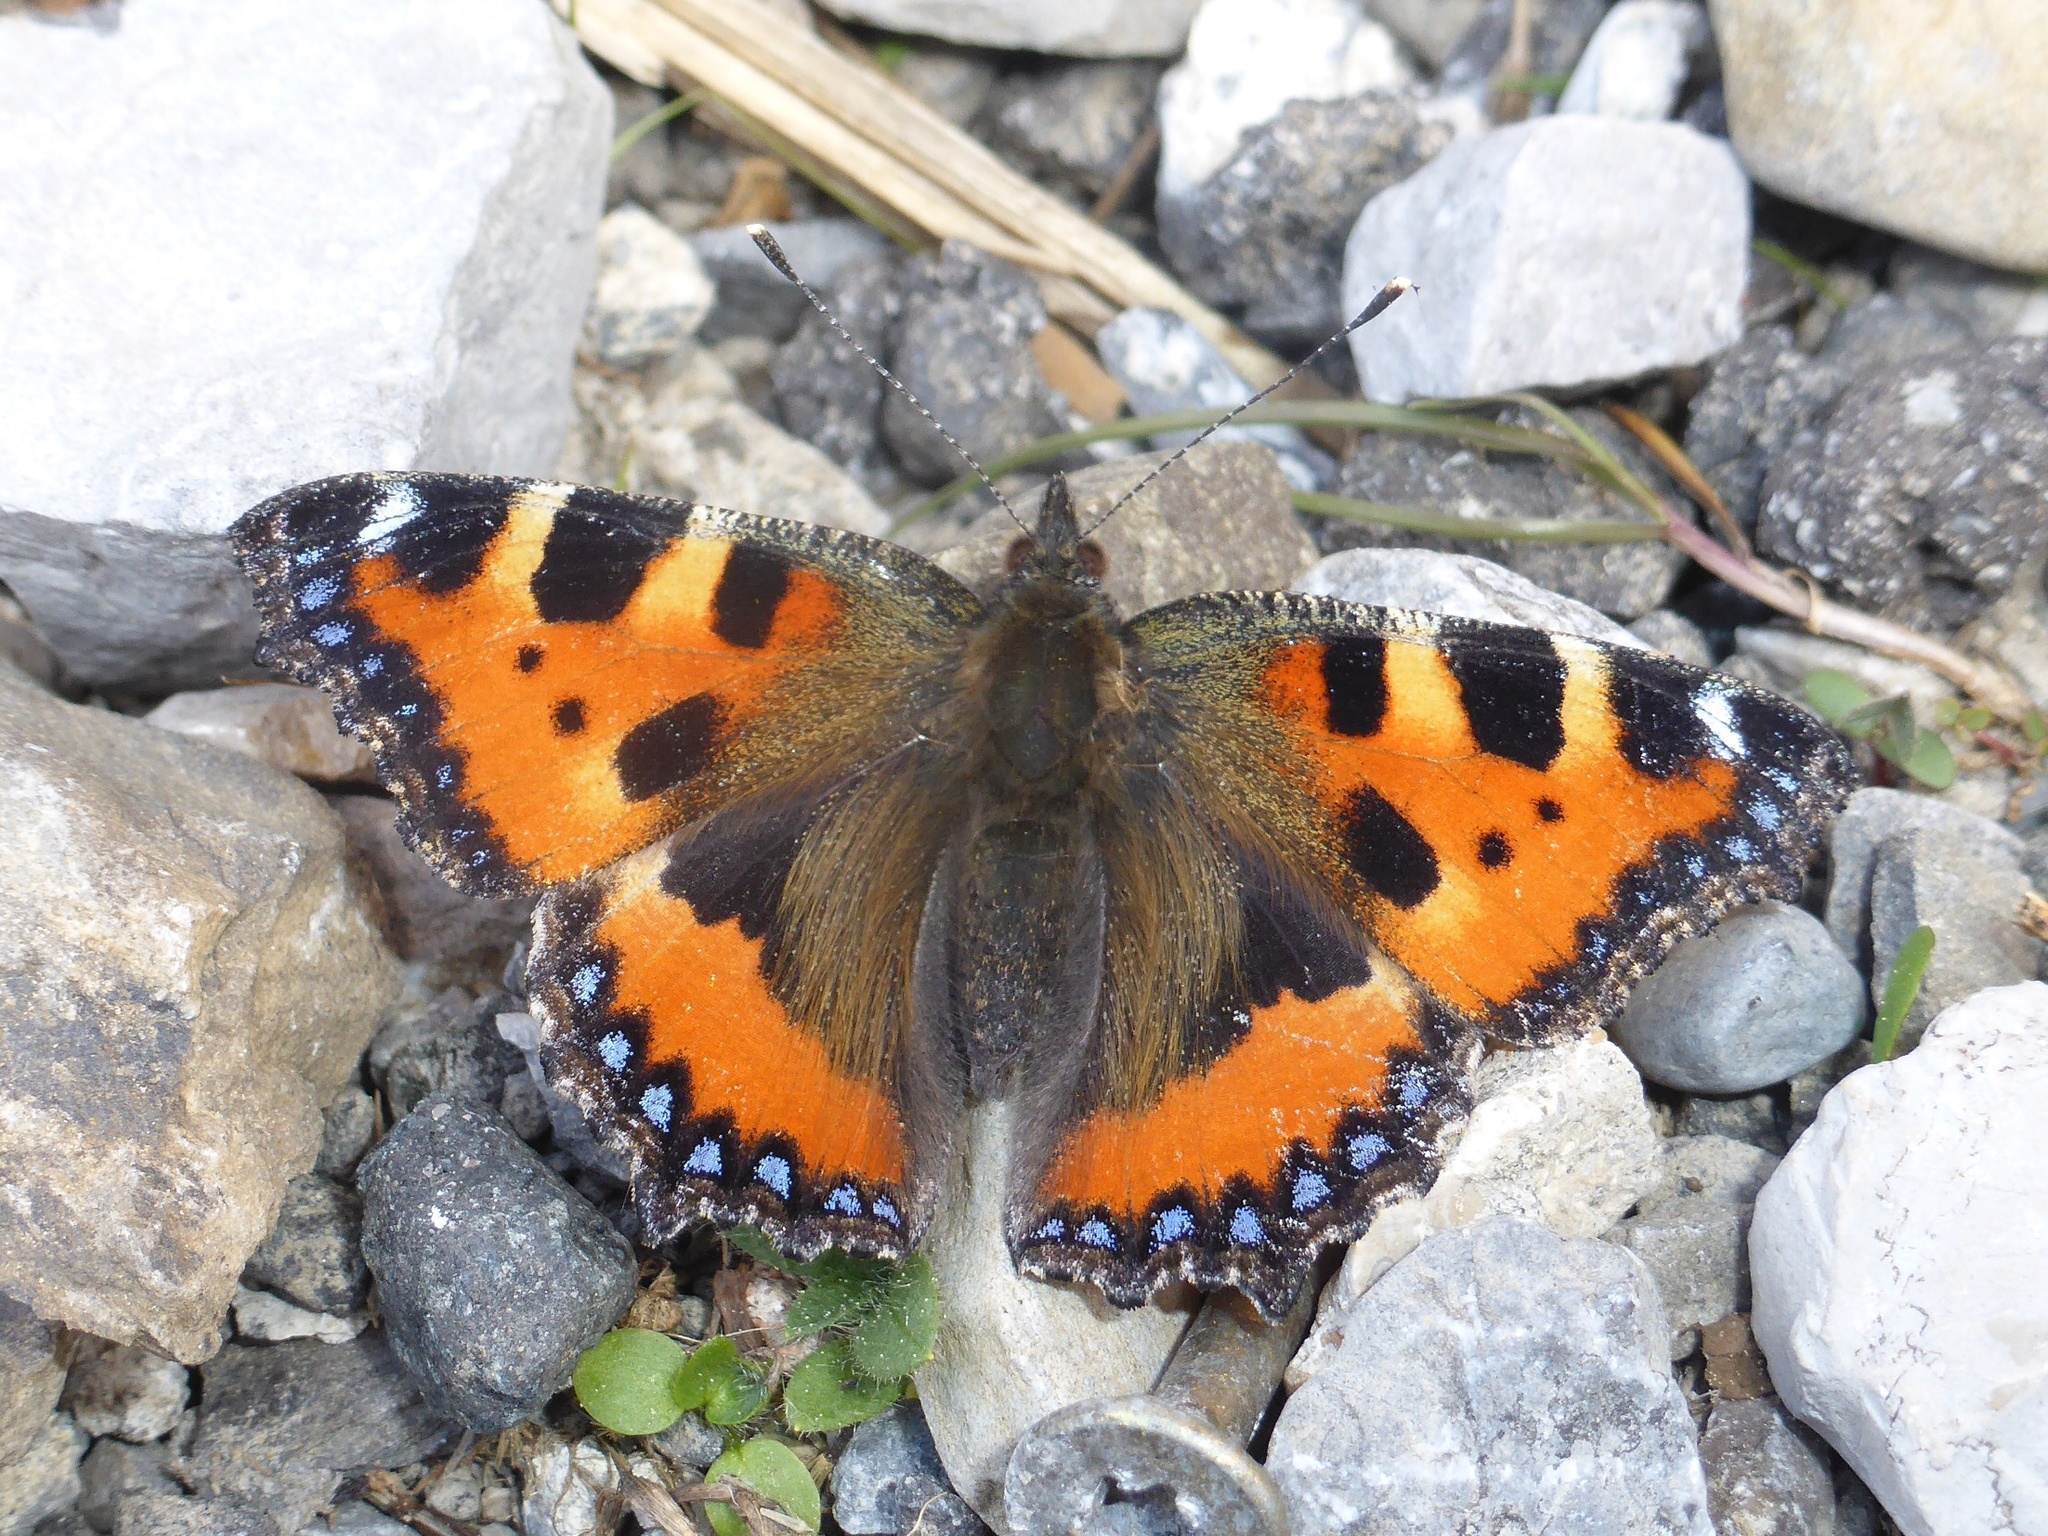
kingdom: Animalia
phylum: Arthropoda
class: Insecta
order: Lepidoptera
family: Nymphalidae
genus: Aglais
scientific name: Aglais urticae
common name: Small tortoiseshell
